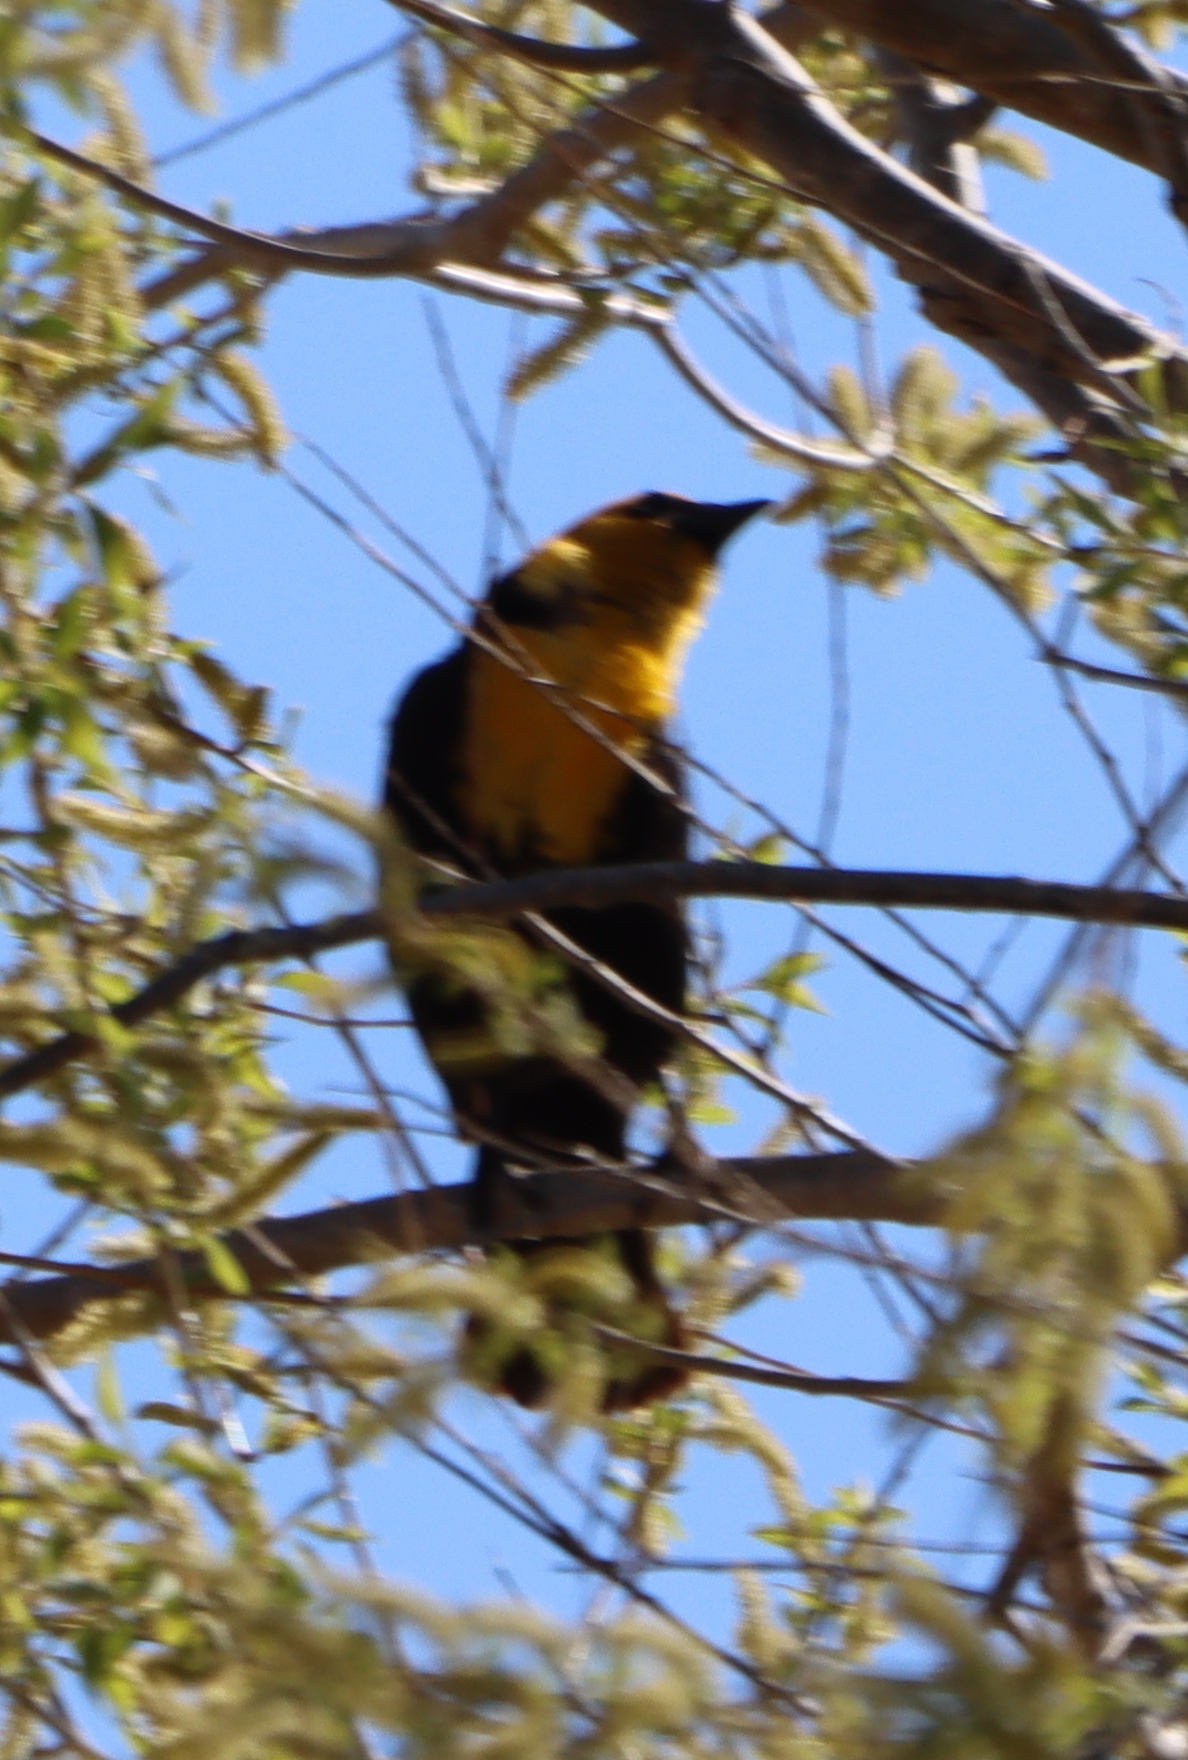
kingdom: Animalia
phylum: Chordata
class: Aves
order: Passeriformes
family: Icteridae
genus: Xanthocephalus
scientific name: Xanthocephalus xanthocephalus
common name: Yellow-headed blackbird
